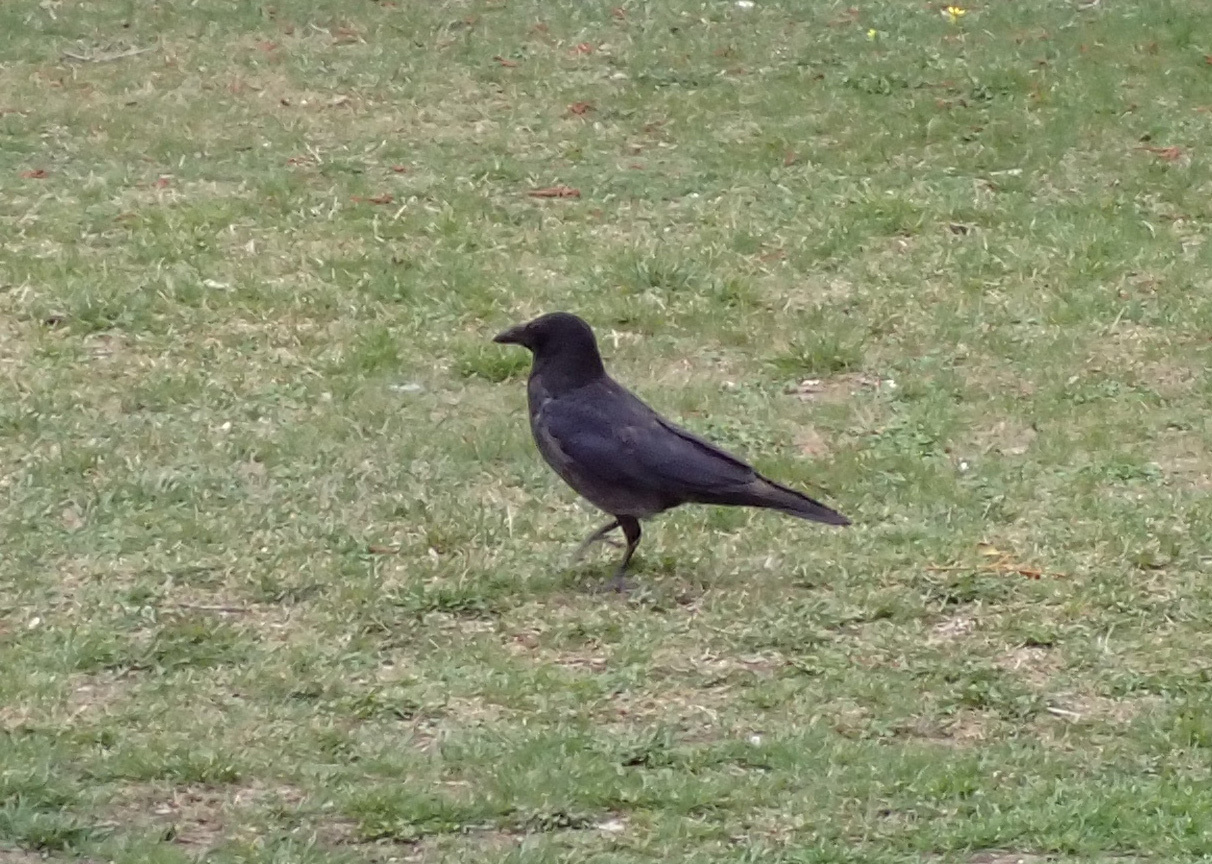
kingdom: Animalia
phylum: Chordata
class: Aves
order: Passeriformes
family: Corvidae
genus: Corvus
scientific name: Corvus
